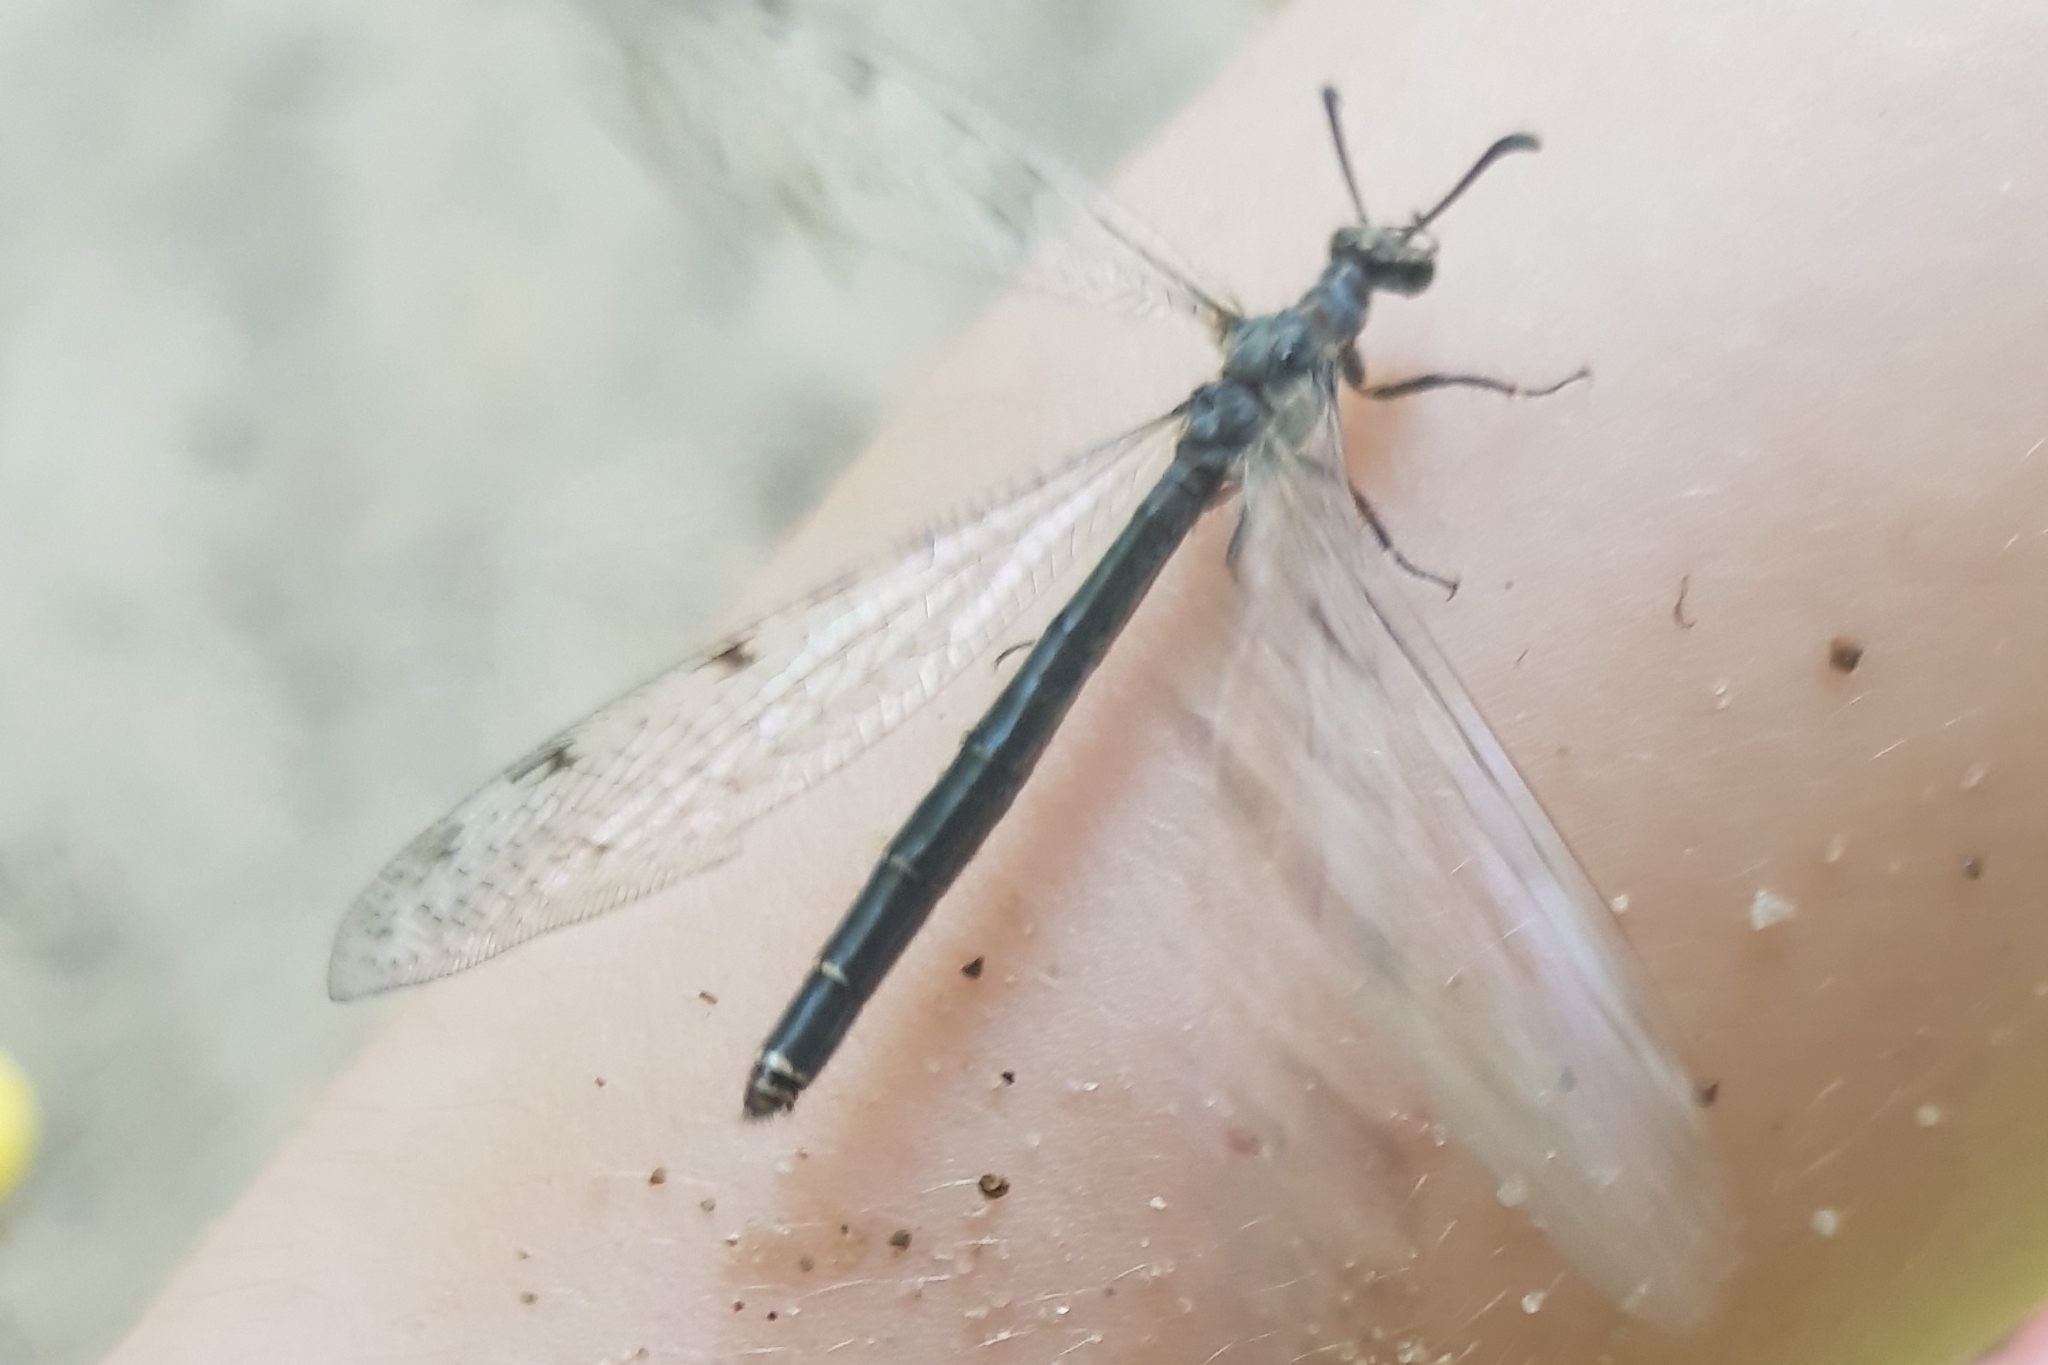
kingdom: Animalia
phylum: Arthropoda
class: Insecta
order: Neuroptera
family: Myrmeleontidae
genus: Euroleon
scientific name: Euroleon nostras
